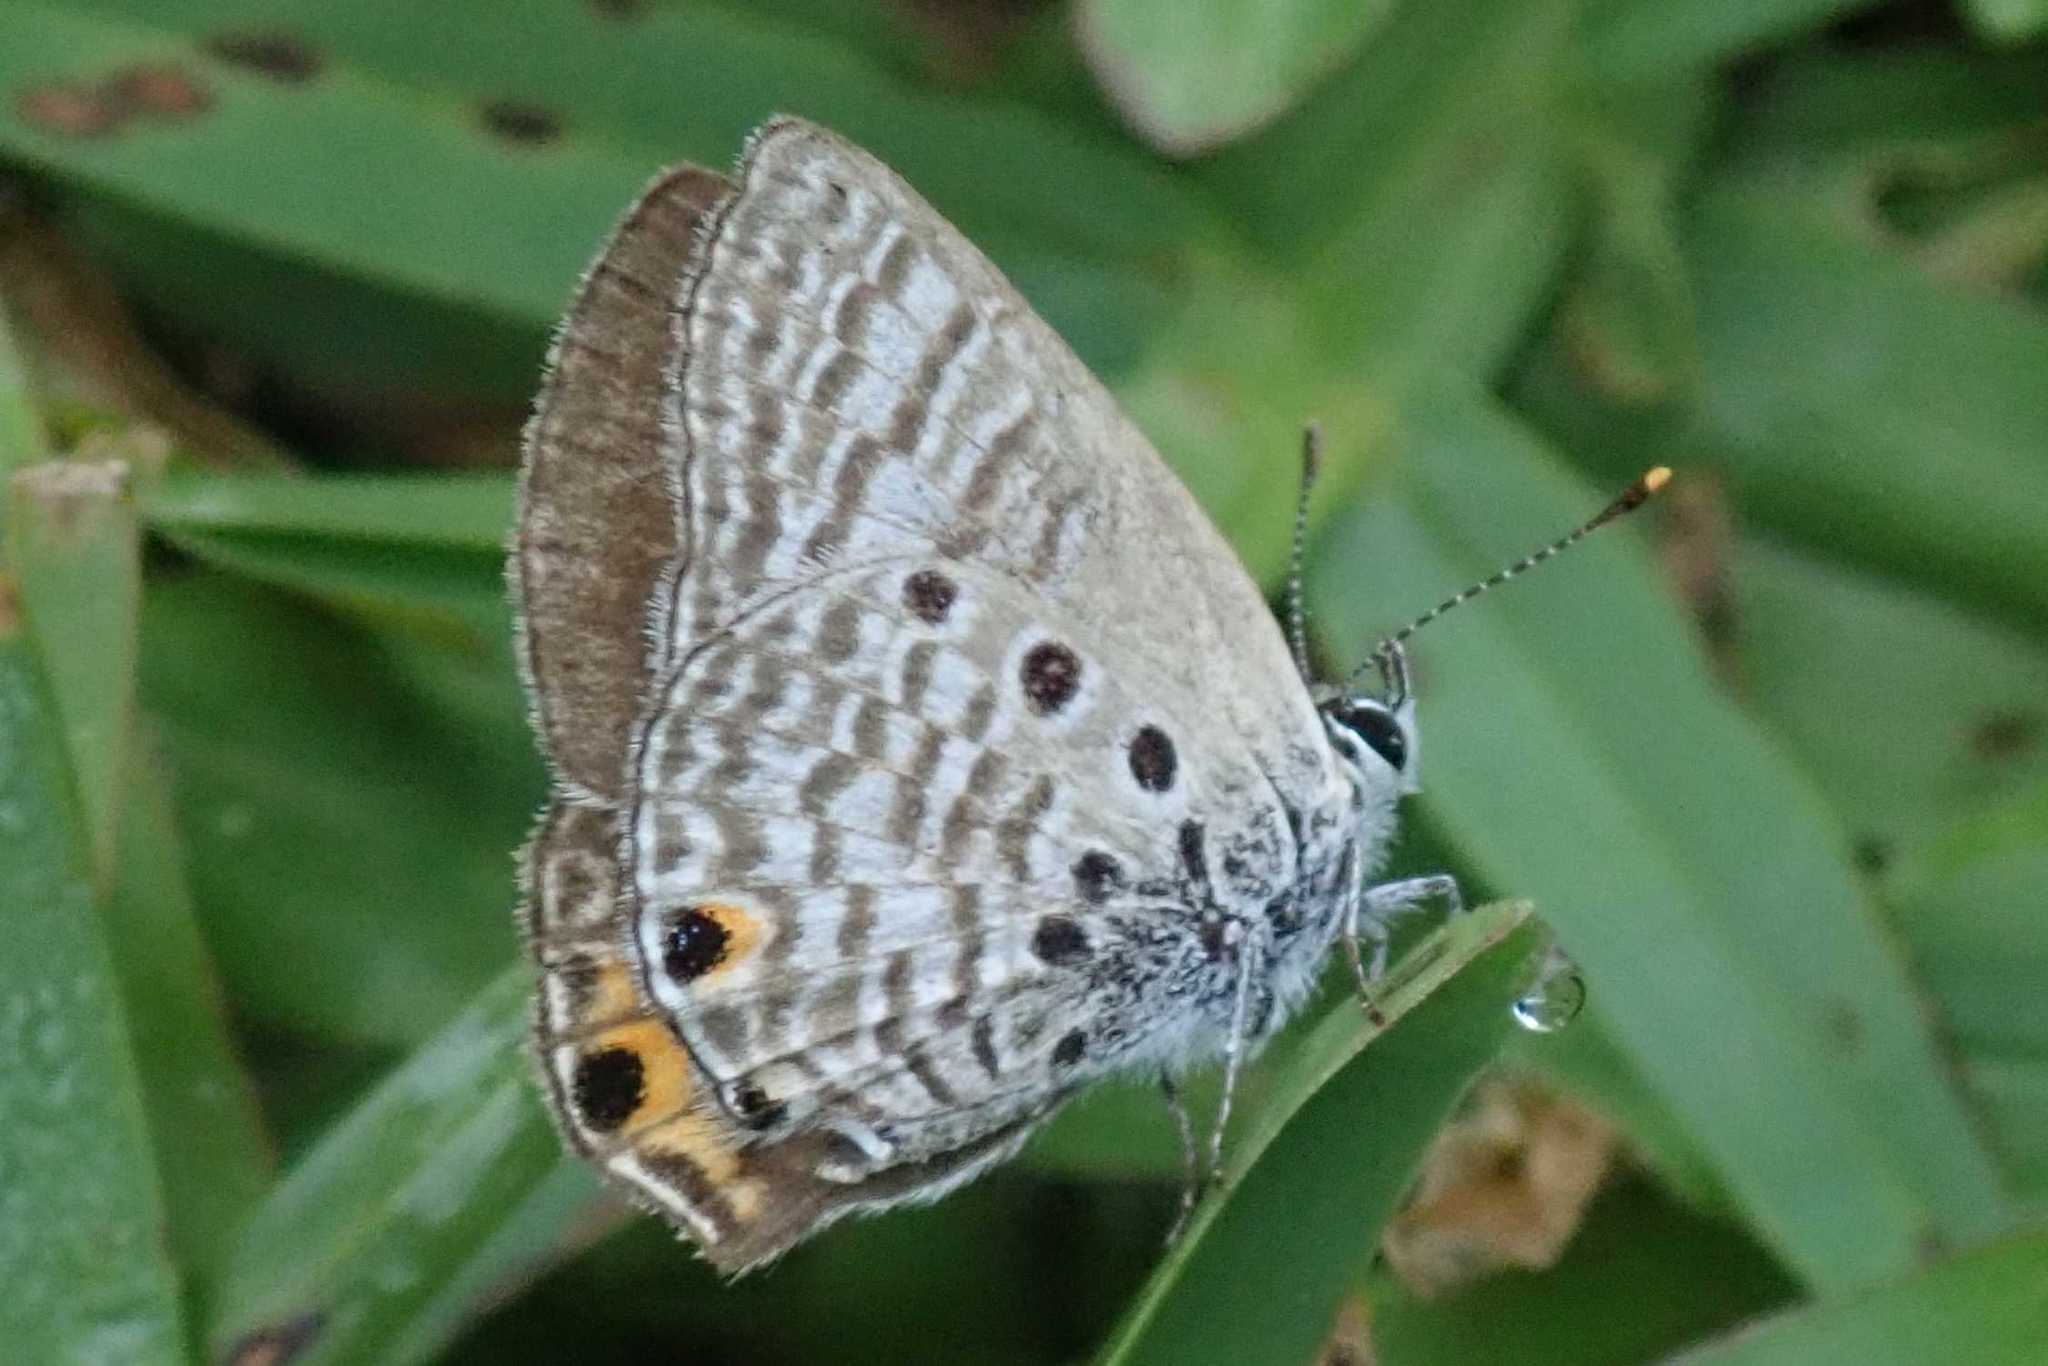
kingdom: Animalia
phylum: Arthropoda
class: Insecta
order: Lepidoptera
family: Lycaenidae
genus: Anthene
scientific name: Anthene amarah
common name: Black-striped hairtail
